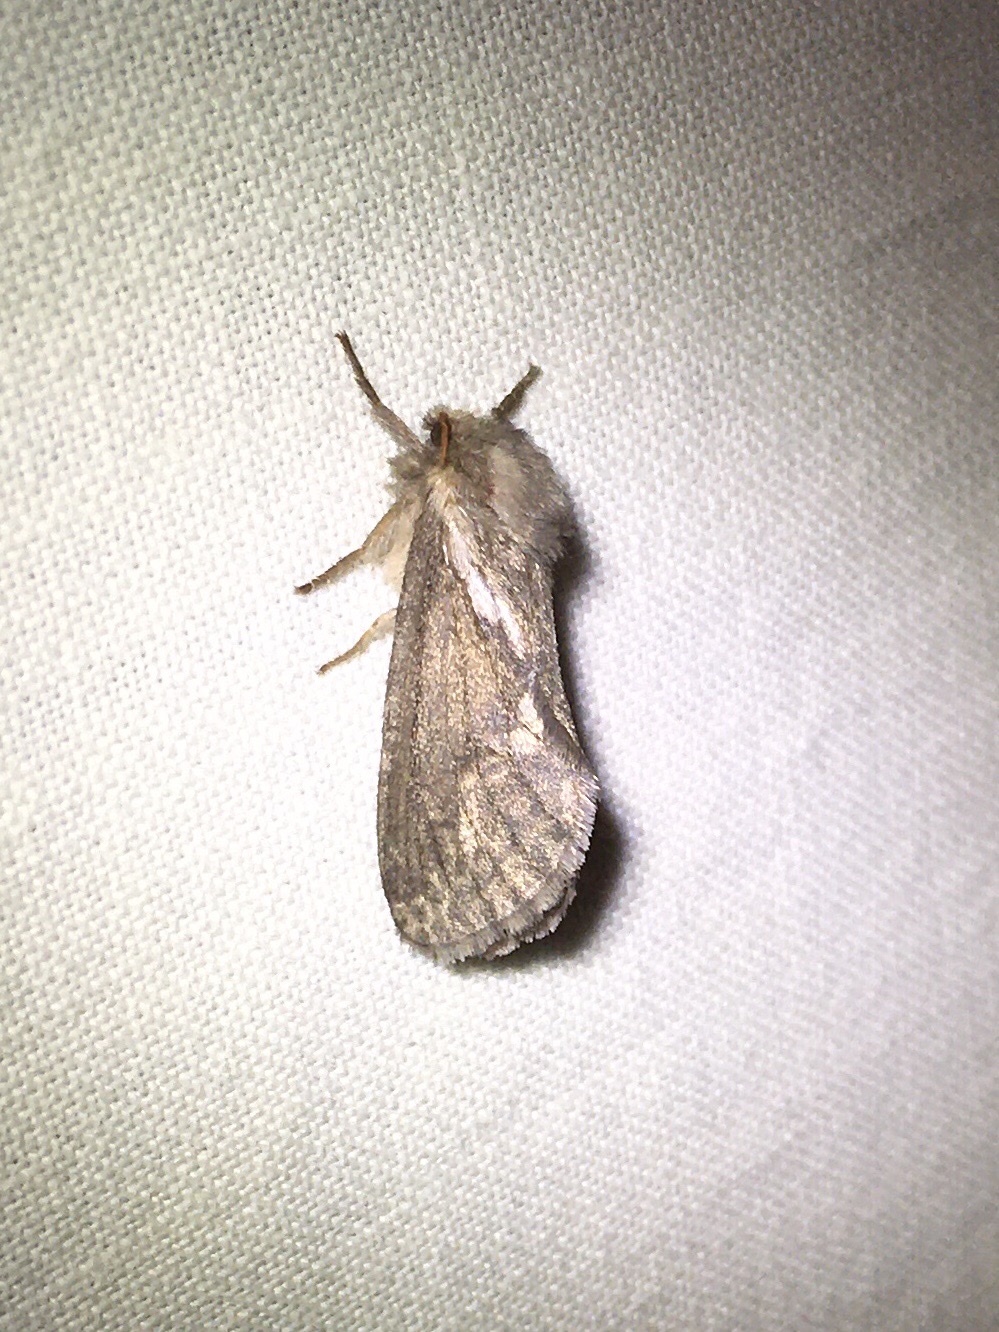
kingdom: Animalia
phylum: Arthropoda
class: Insecta
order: Lepidoptera
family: Hepialidae
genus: Korscheltellus
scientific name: Korscheltellus lupulina
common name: Common swift
